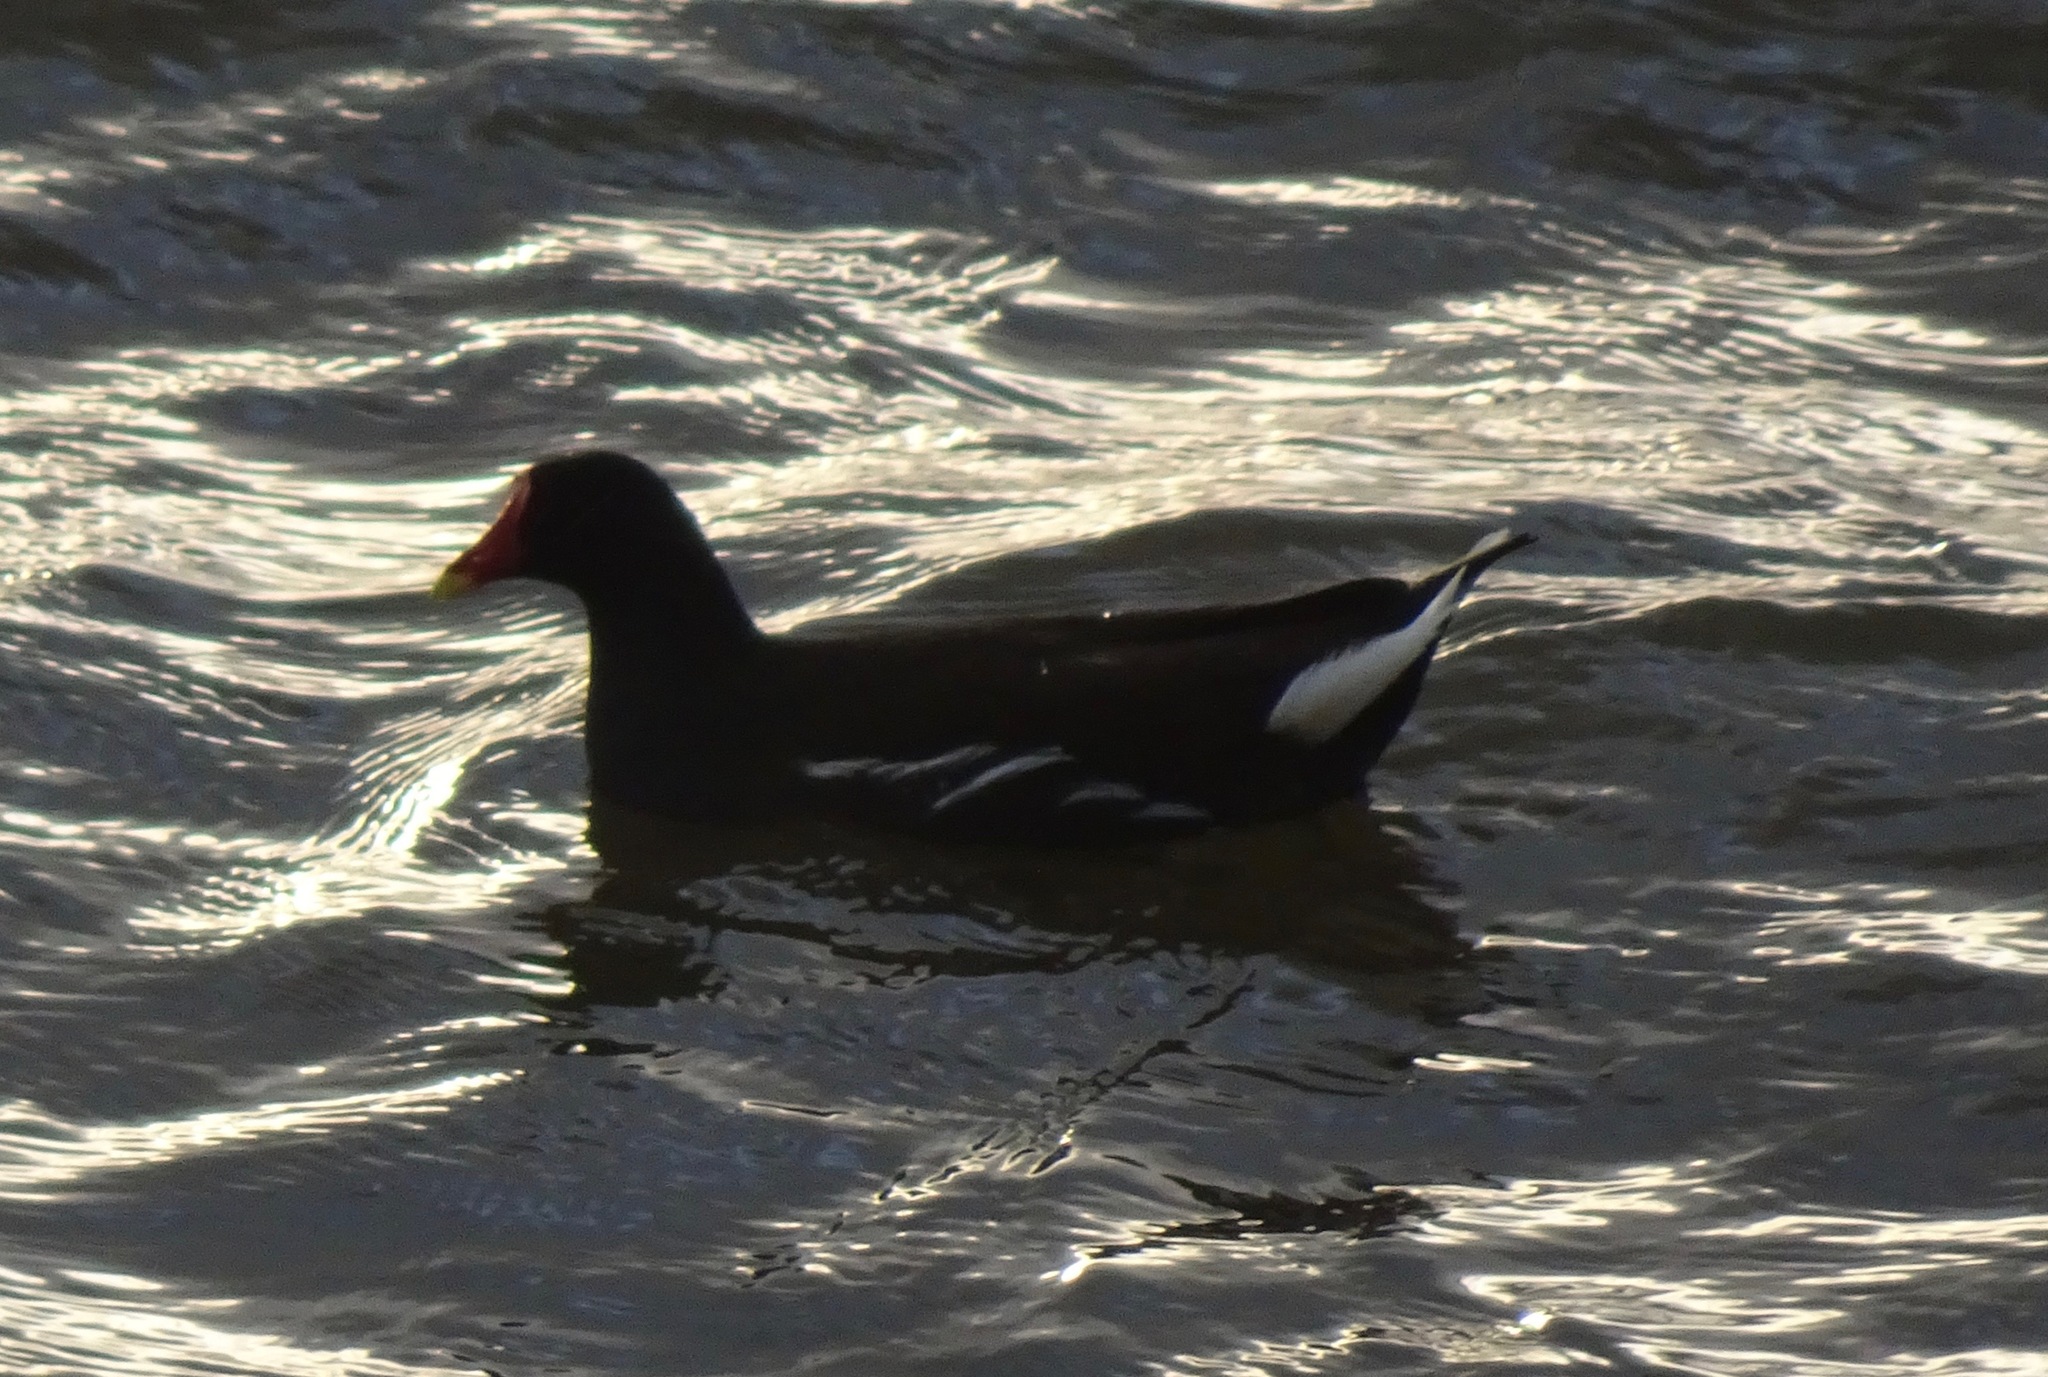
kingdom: Animalia
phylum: Chordata
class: Aves
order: Gruiformes
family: Rallidae
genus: Gallinula
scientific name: Gallinula chloropus
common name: Common moorhen
